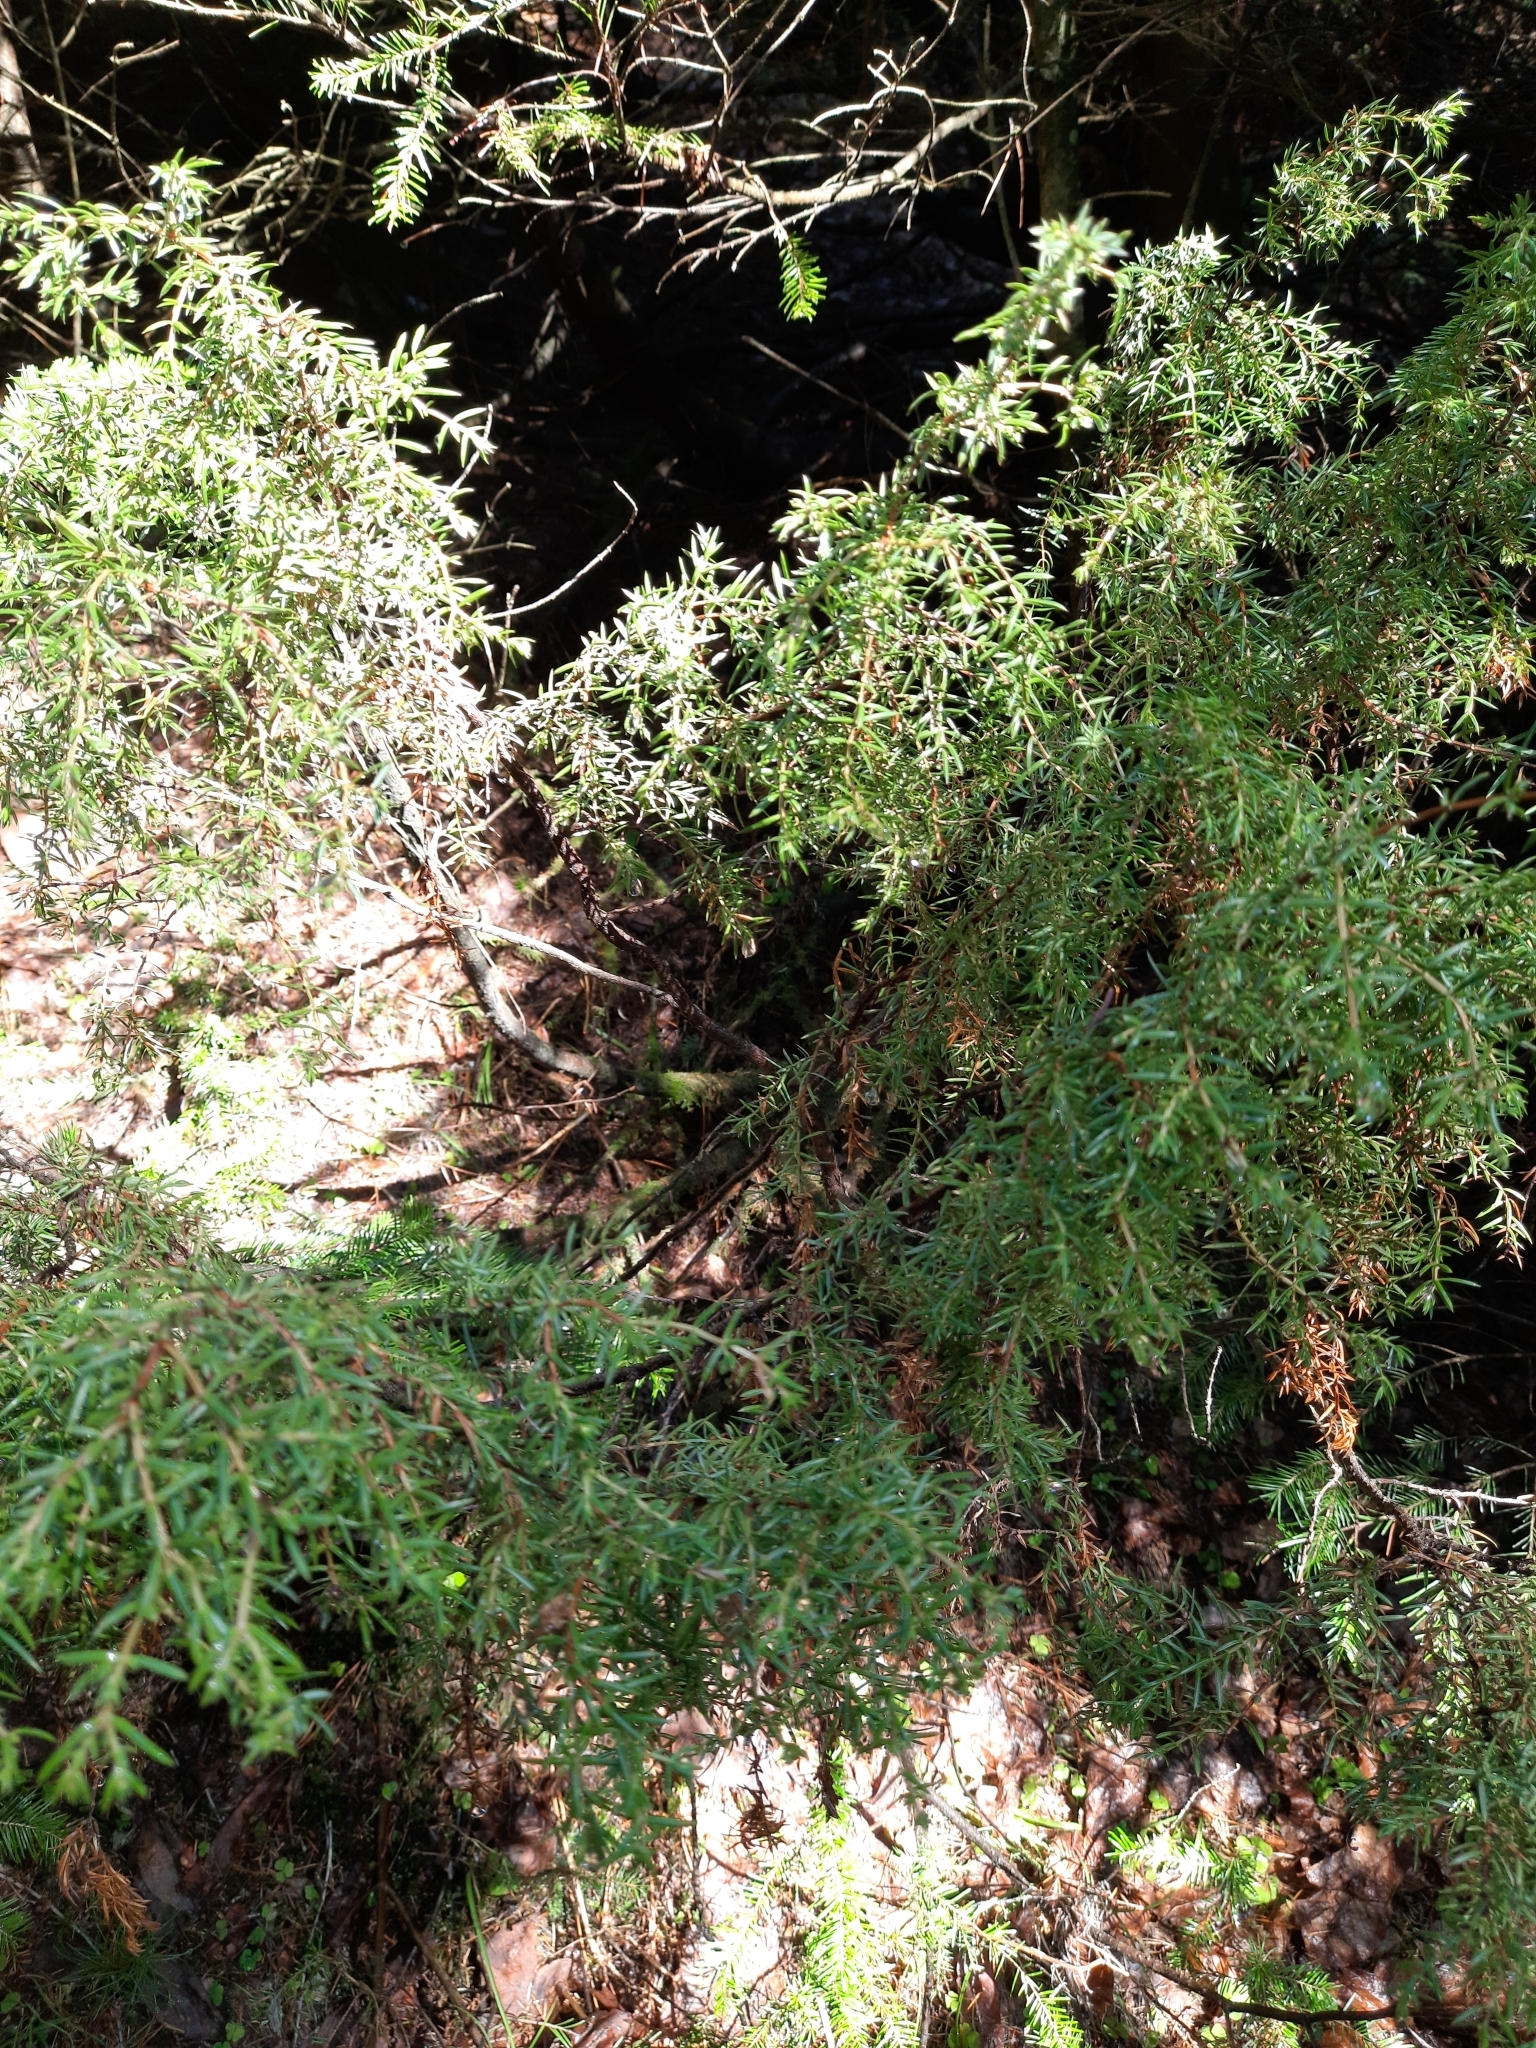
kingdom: Plantae
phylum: Tracheophyta
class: Pinopsida
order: Pinales
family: Cupressaceae
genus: Juniperus
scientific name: Juniperus communis
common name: Common juniper
